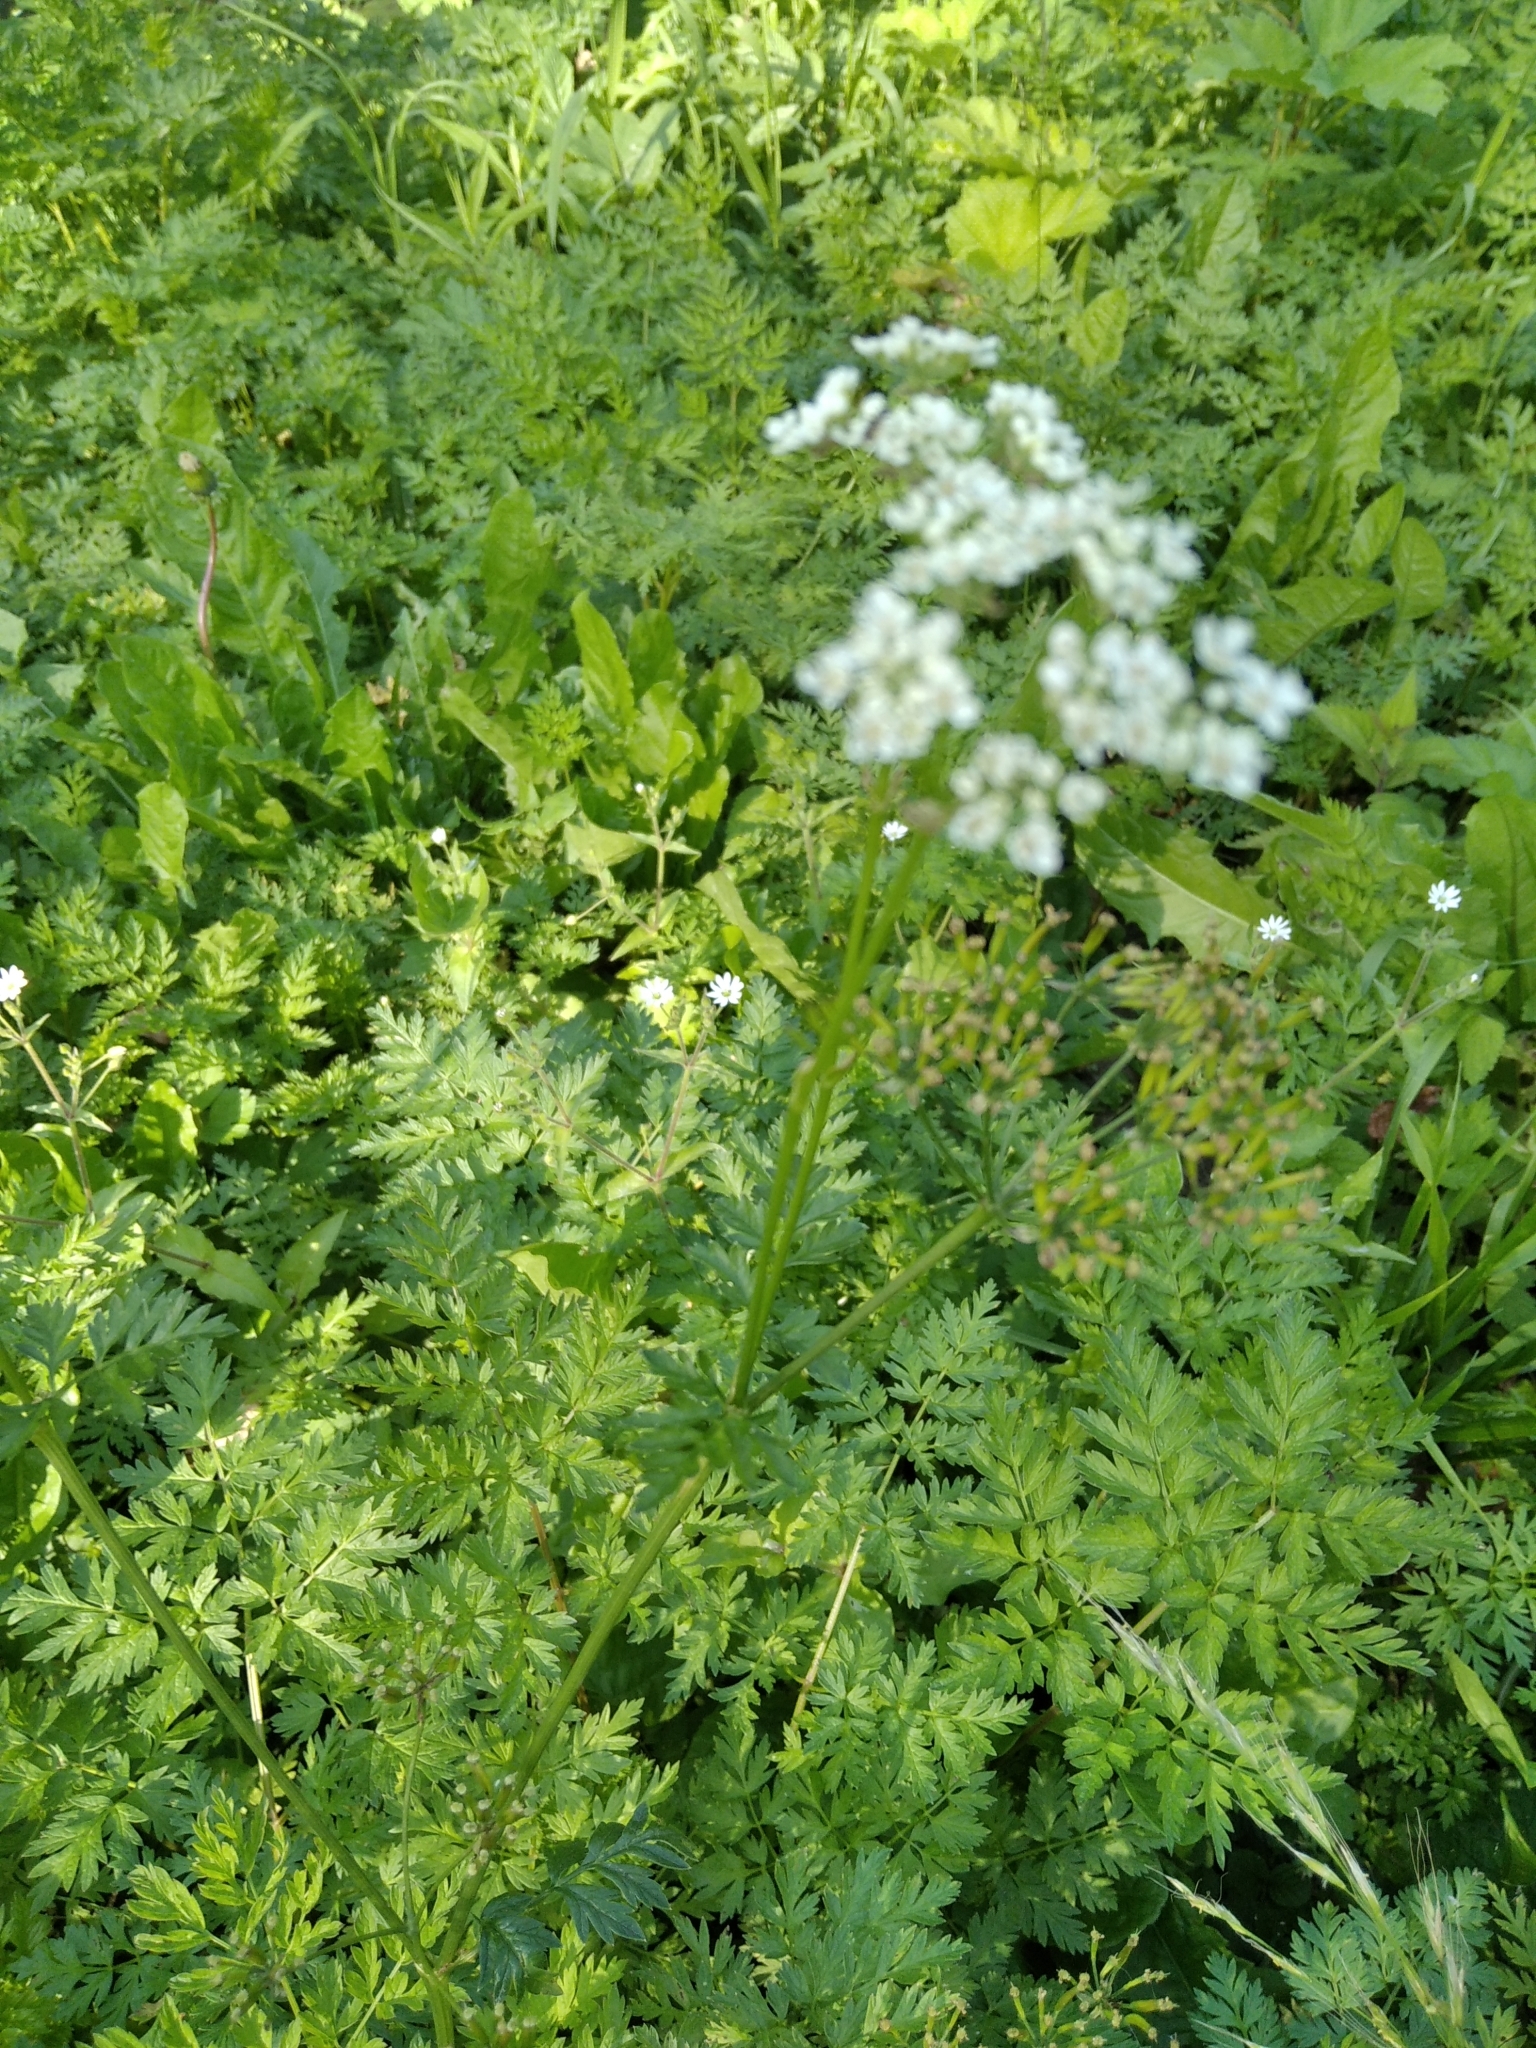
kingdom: Plantae
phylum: Tracheophyta
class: Magnoliopsida
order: Apiales
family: Apiaceae
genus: Anthriscus
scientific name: Anthriscus sylvestris
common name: Cow parsley
